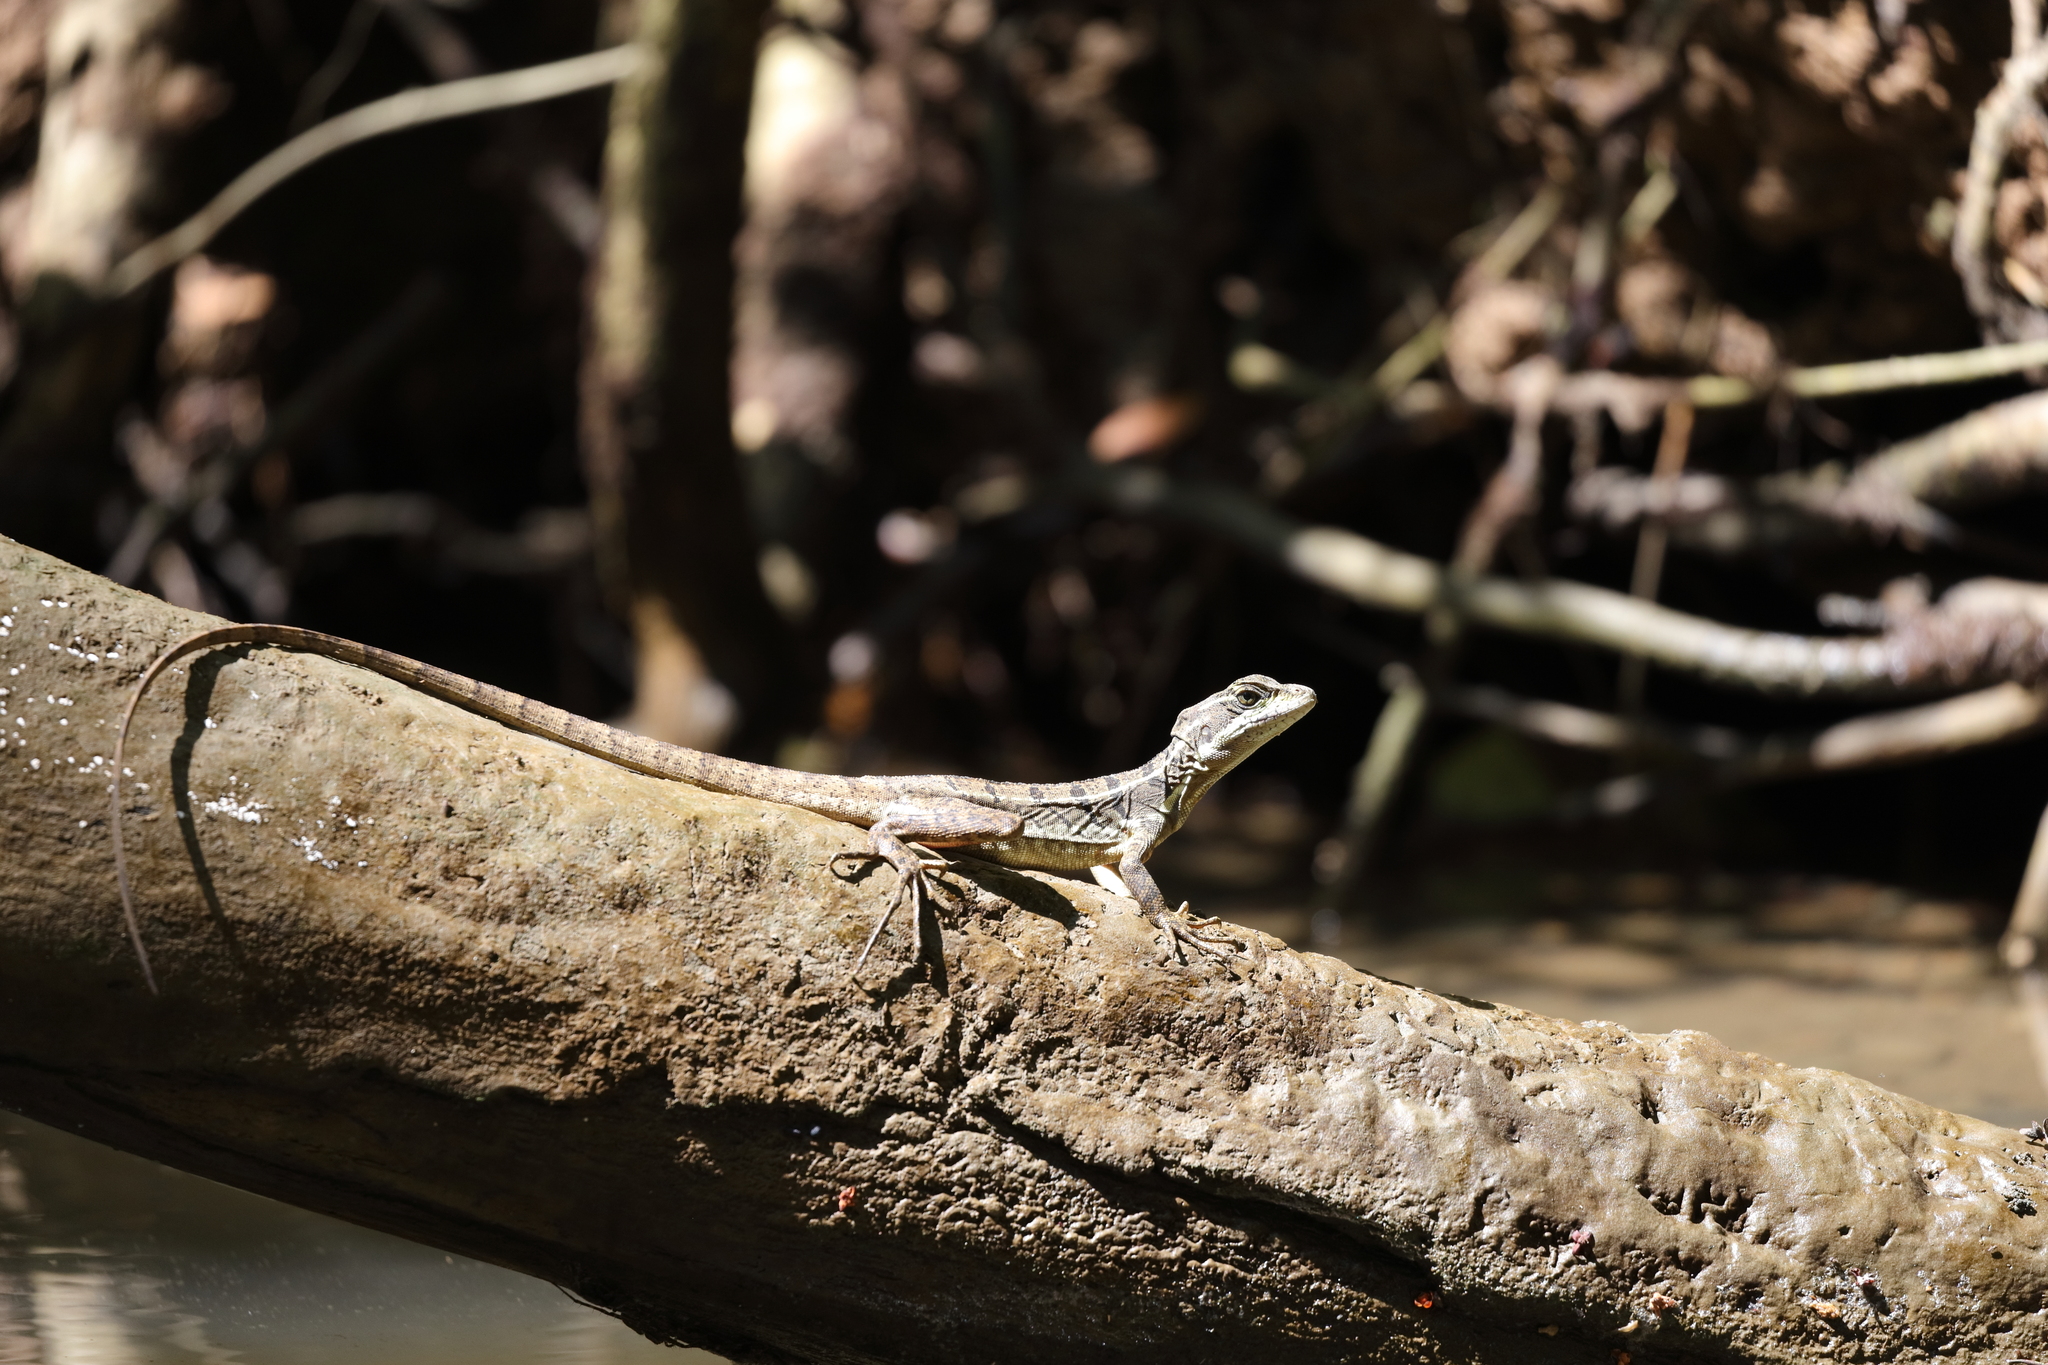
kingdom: Animalia
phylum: Chordata
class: Squamata
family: Corytophanidae
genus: Basiliscus
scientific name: Basiliscus basiliscus
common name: Common basilisk
